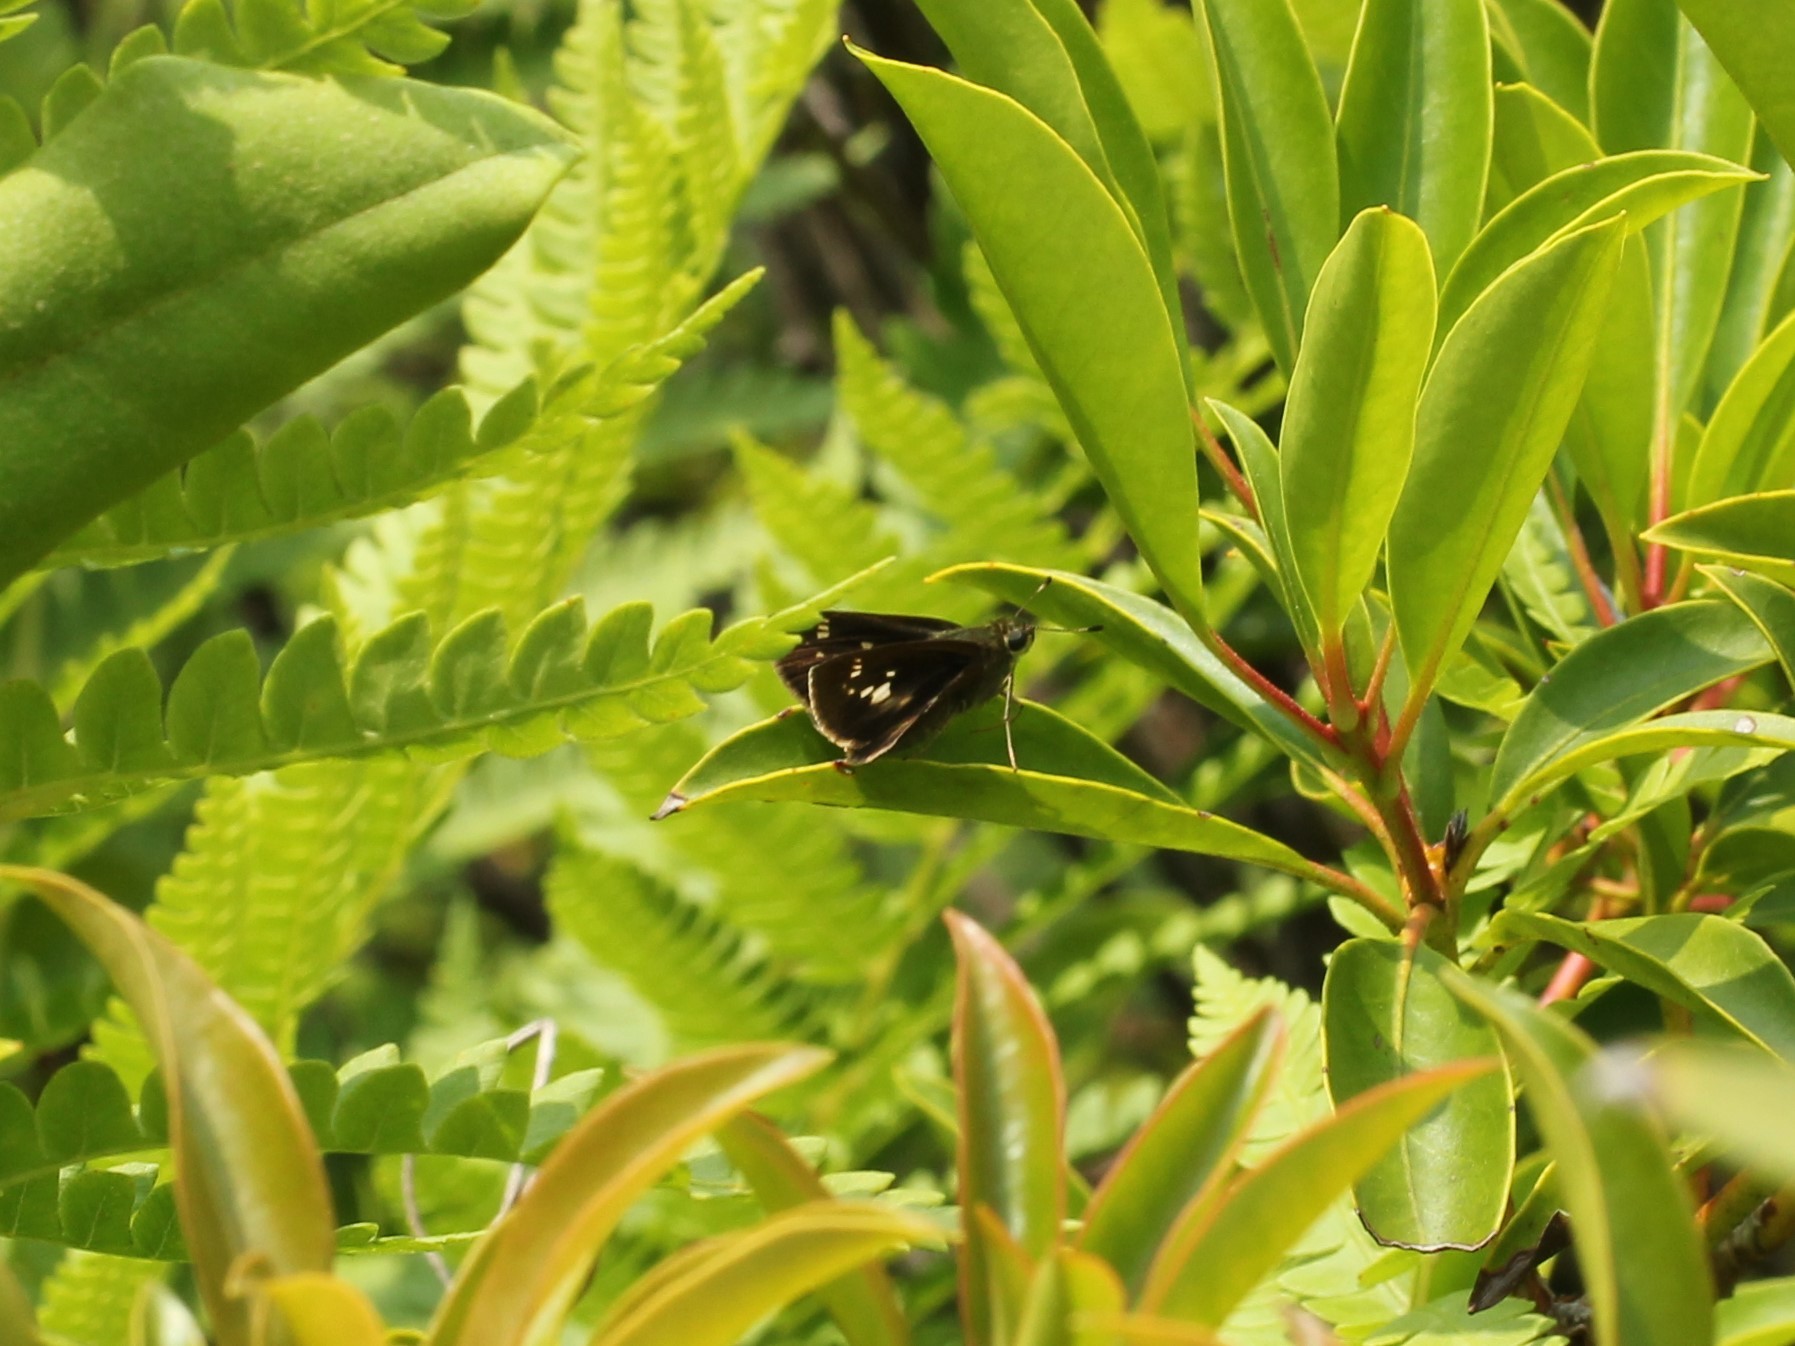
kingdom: Animalia
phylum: Arthropoda
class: Insecta
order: Lepidoptera
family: Hesperiidae
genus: Vernia
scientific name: Vernia verna
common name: Little glassywing
